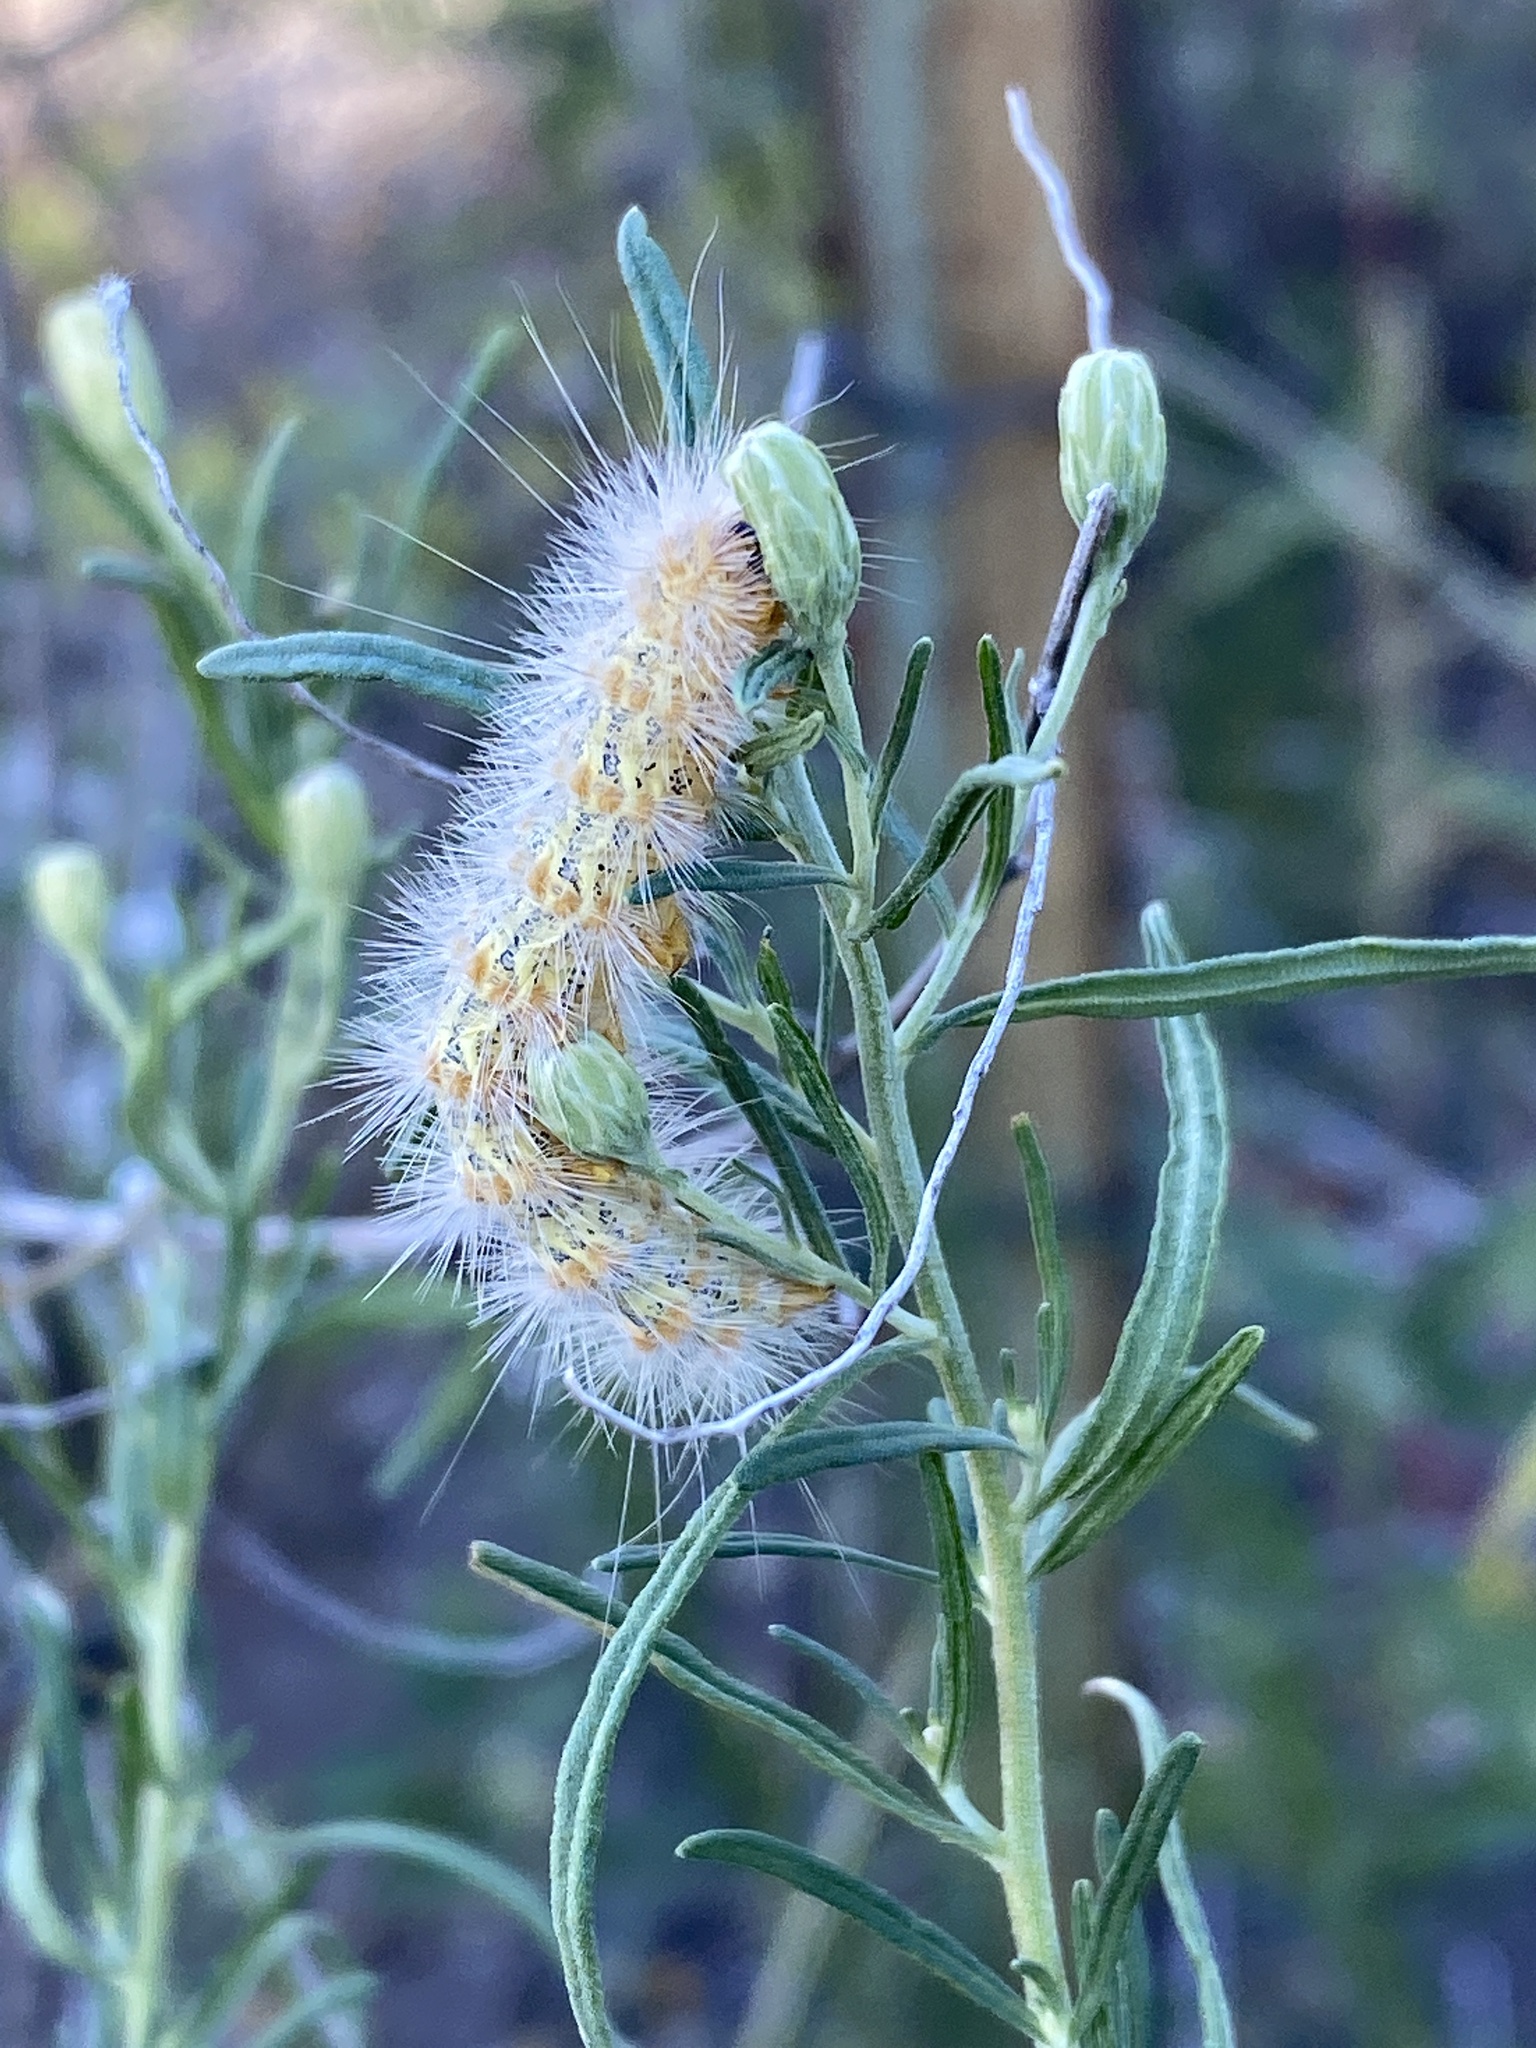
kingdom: Animalia
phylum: Arthropoda
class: Insecta
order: Lepidoptera
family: Erebidae
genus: Estigmene
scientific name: Estigmene
